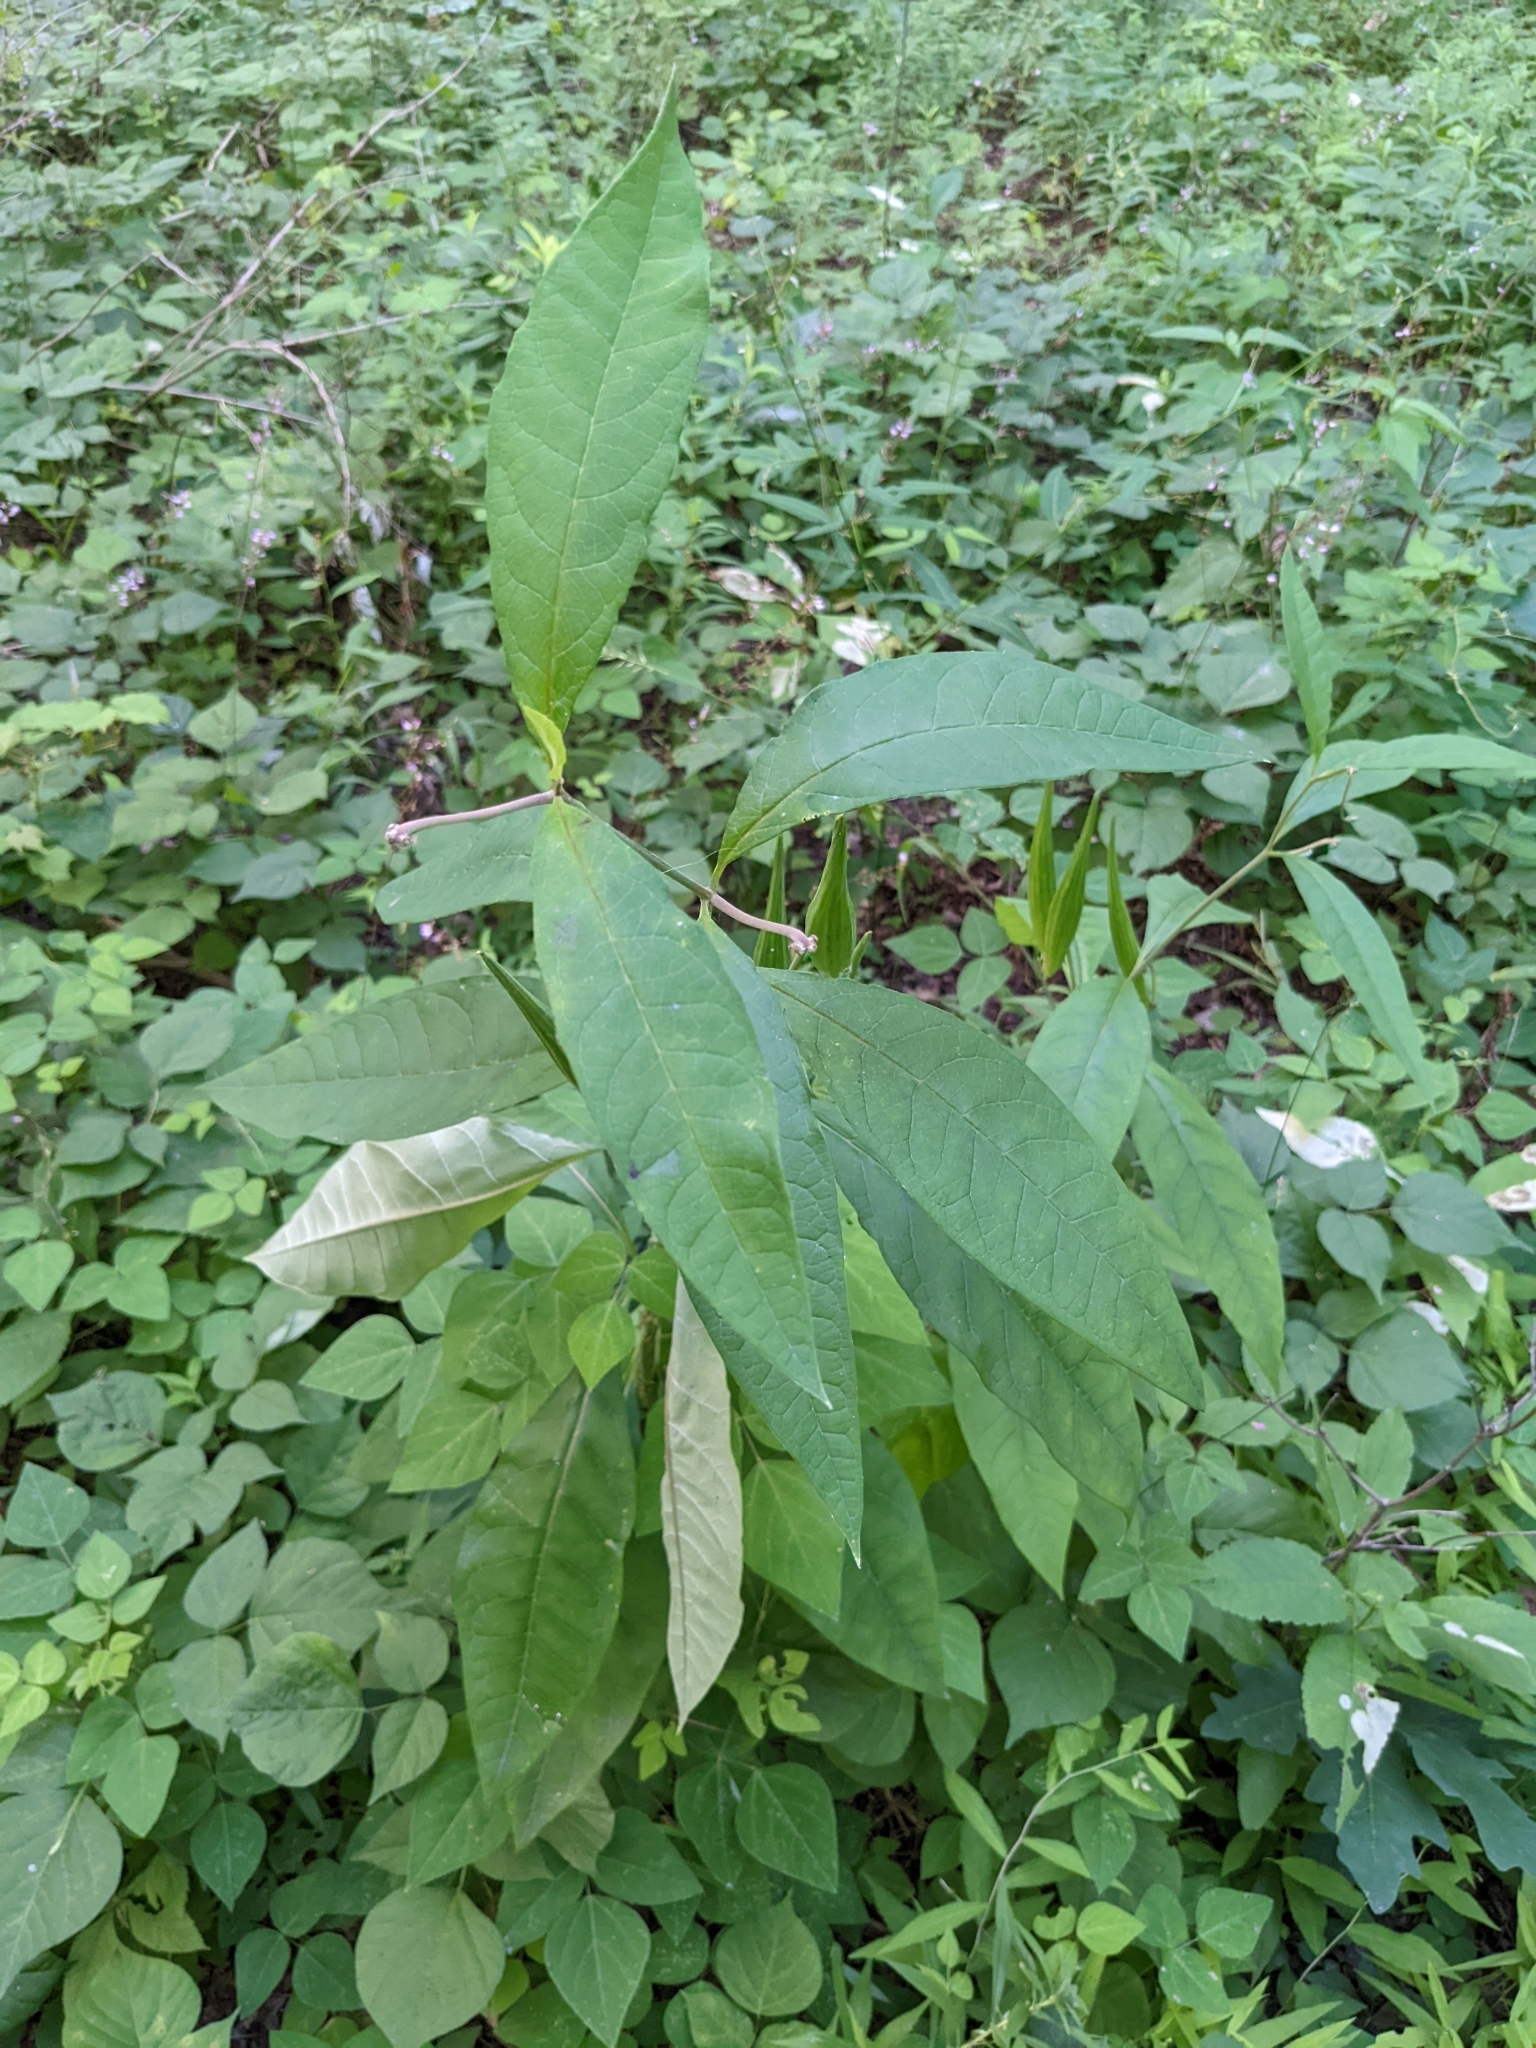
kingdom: Plantae
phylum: Tracheophyta
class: Magnoliopsida
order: Gentianales
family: Apocynaceae
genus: Asclepias
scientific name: Asclepias incarnata
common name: Swamp milkweed
